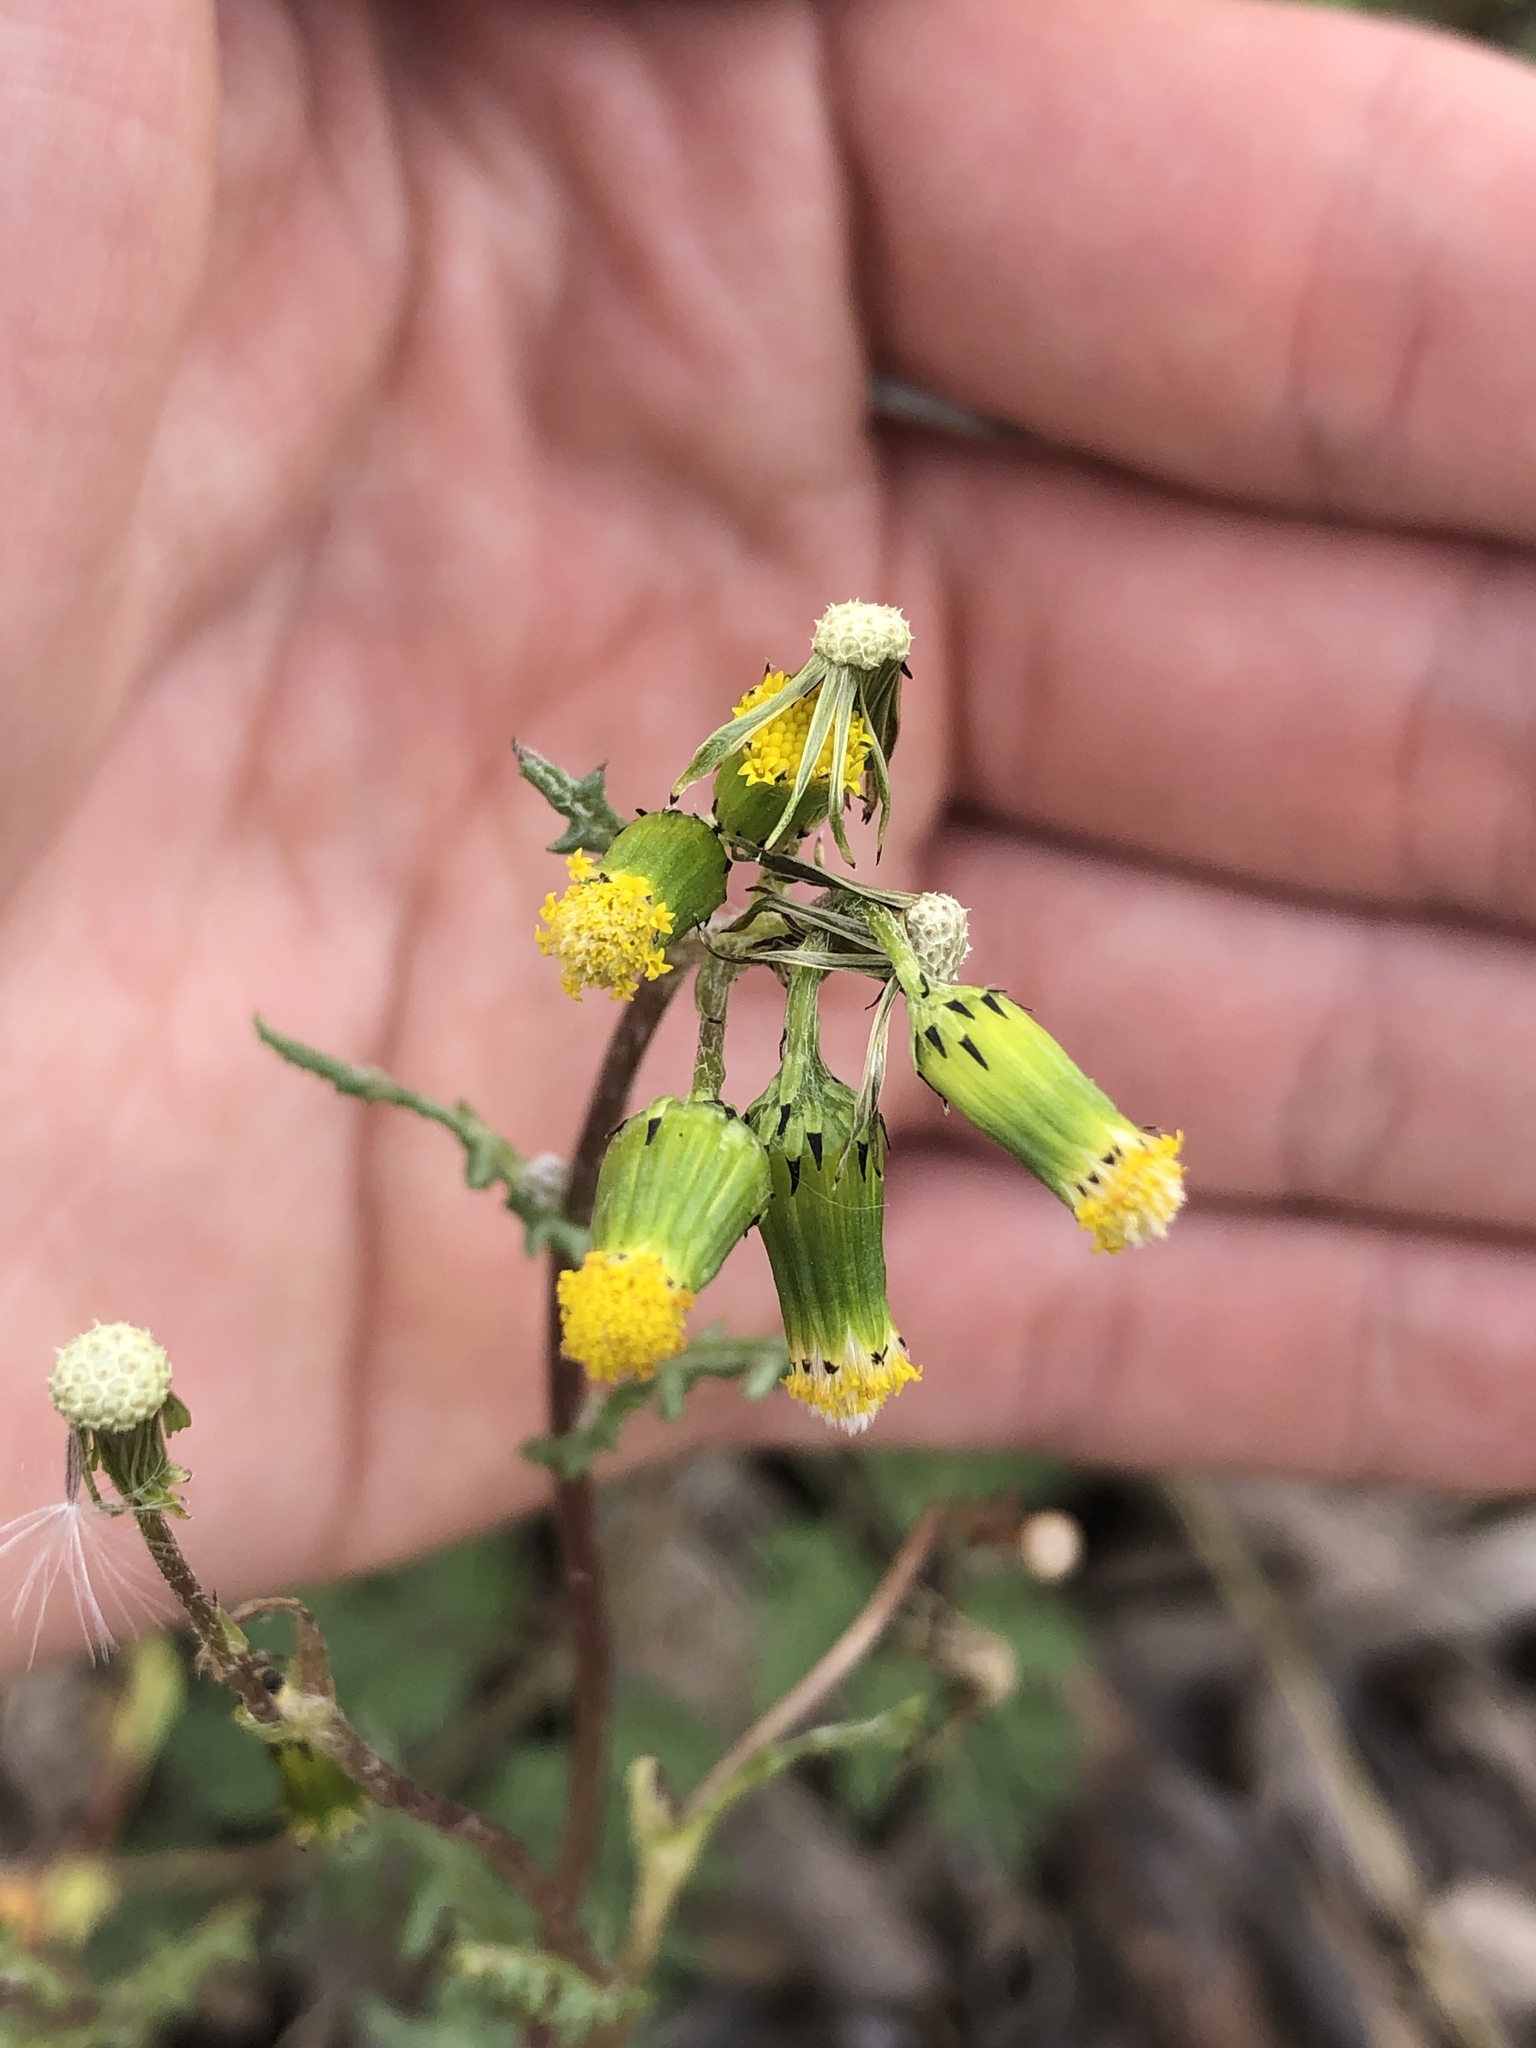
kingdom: Plantae
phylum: Tracheophyta
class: Magnoliopsida
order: Asterales
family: Asteraceae
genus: Senecio
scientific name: Senecio vulgaris
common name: Old-man-in-the-spring
